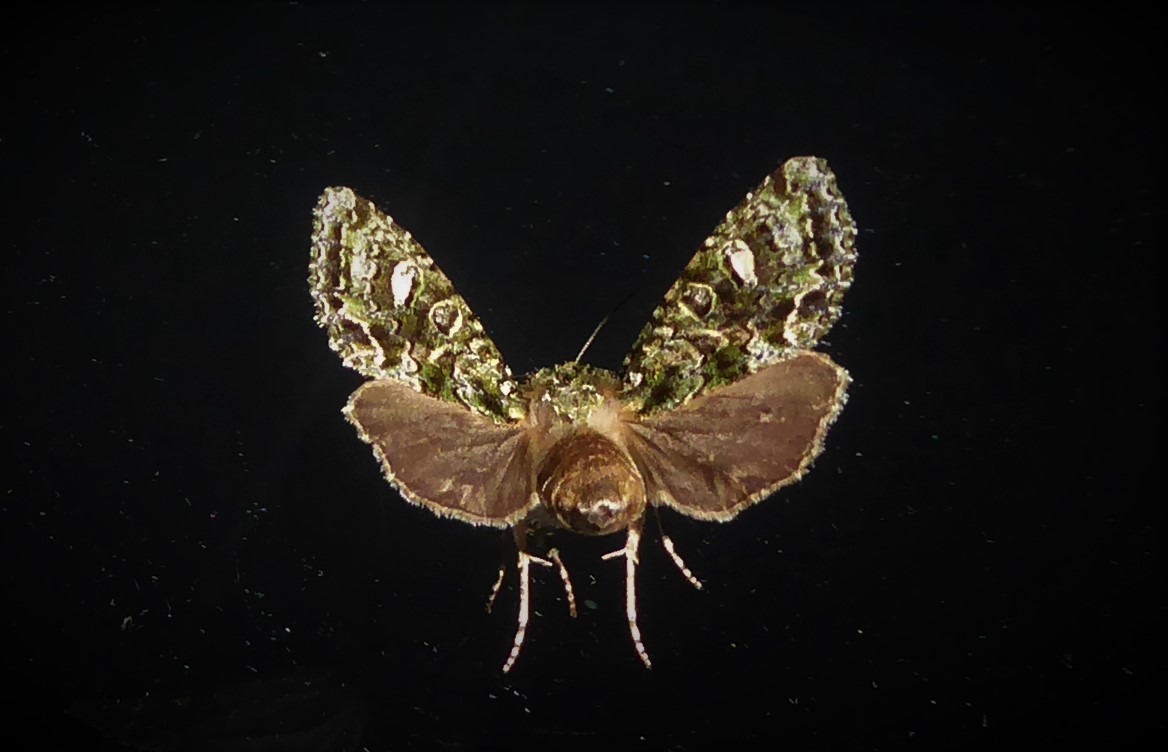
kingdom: Animalia
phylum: Arthropoda
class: Insecta
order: Lepidoptera
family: Noctuidae
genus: Ichneutica
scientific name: Ichneutica
